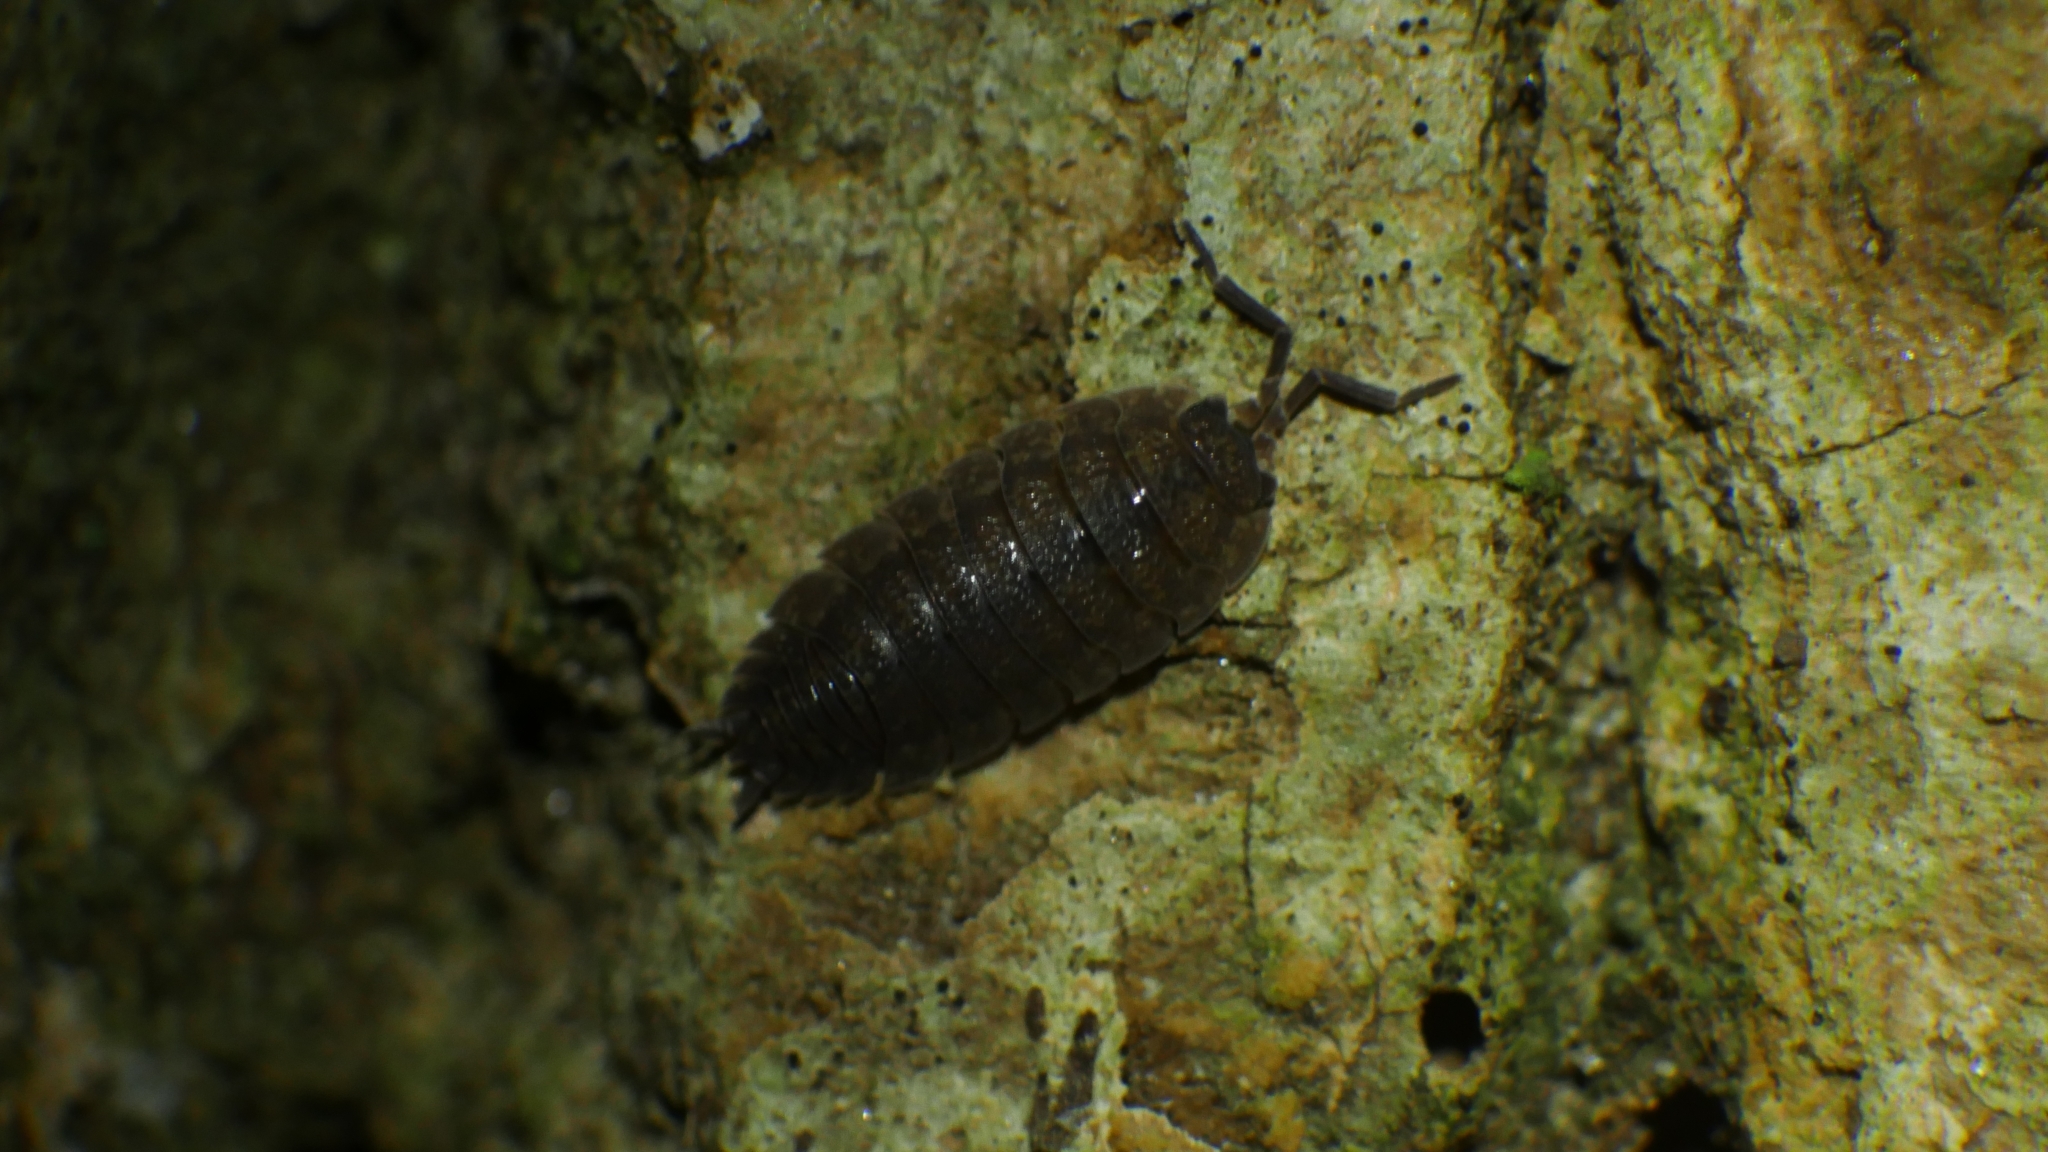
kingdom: Animalia
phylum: Arthropoda
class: Malacostraca
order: Isopoda
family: Porcellionidae
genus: Porcellio
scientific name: Porcellio scaber
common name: Common rough woodlouse
